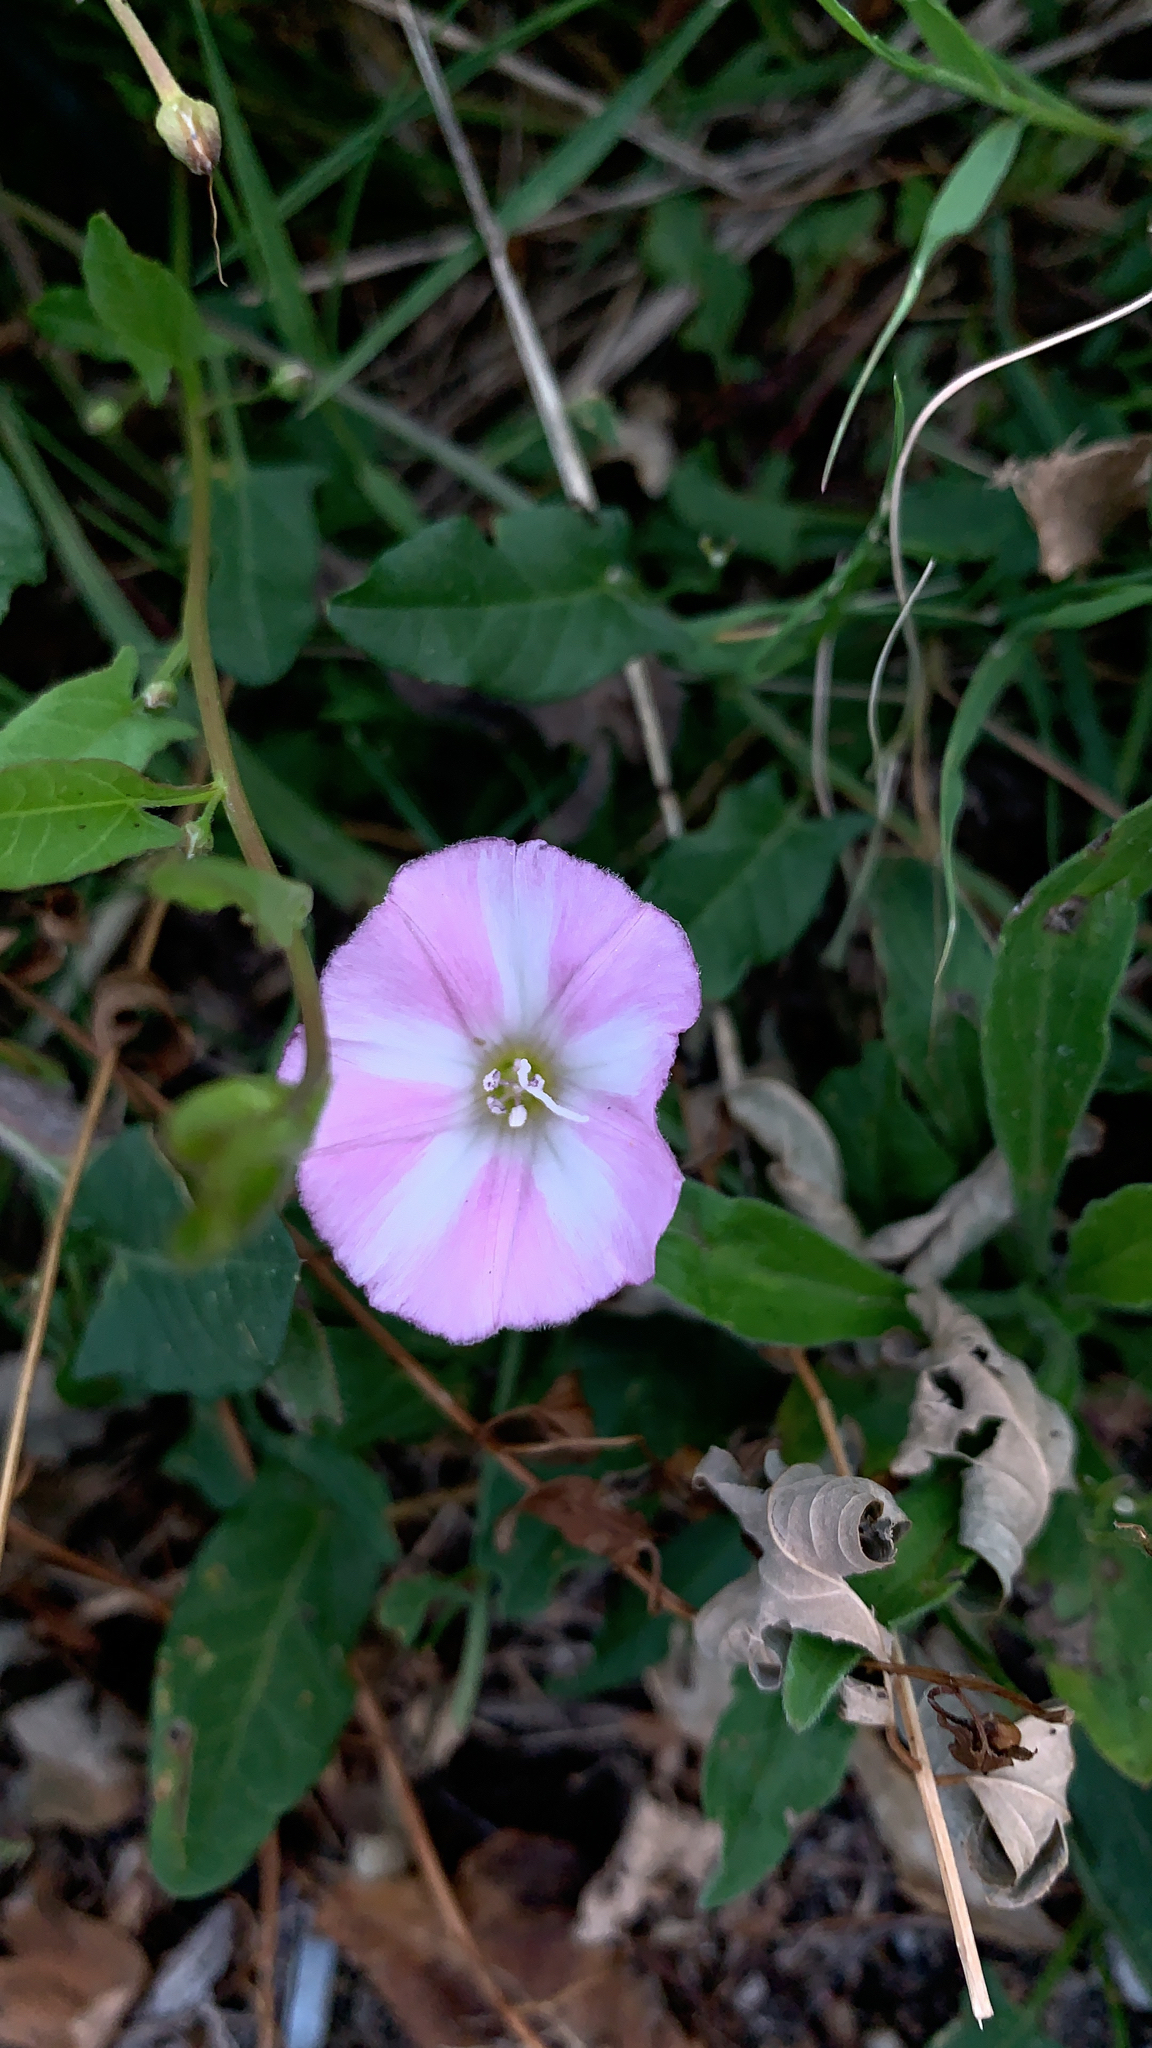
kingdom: Plantae
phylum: Tracheophyta
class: Magnoliopsida
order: Solanales
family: Convolvulaceae
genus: Convolvulus
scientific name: Convolvulus arvensis
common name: Field bindweed
